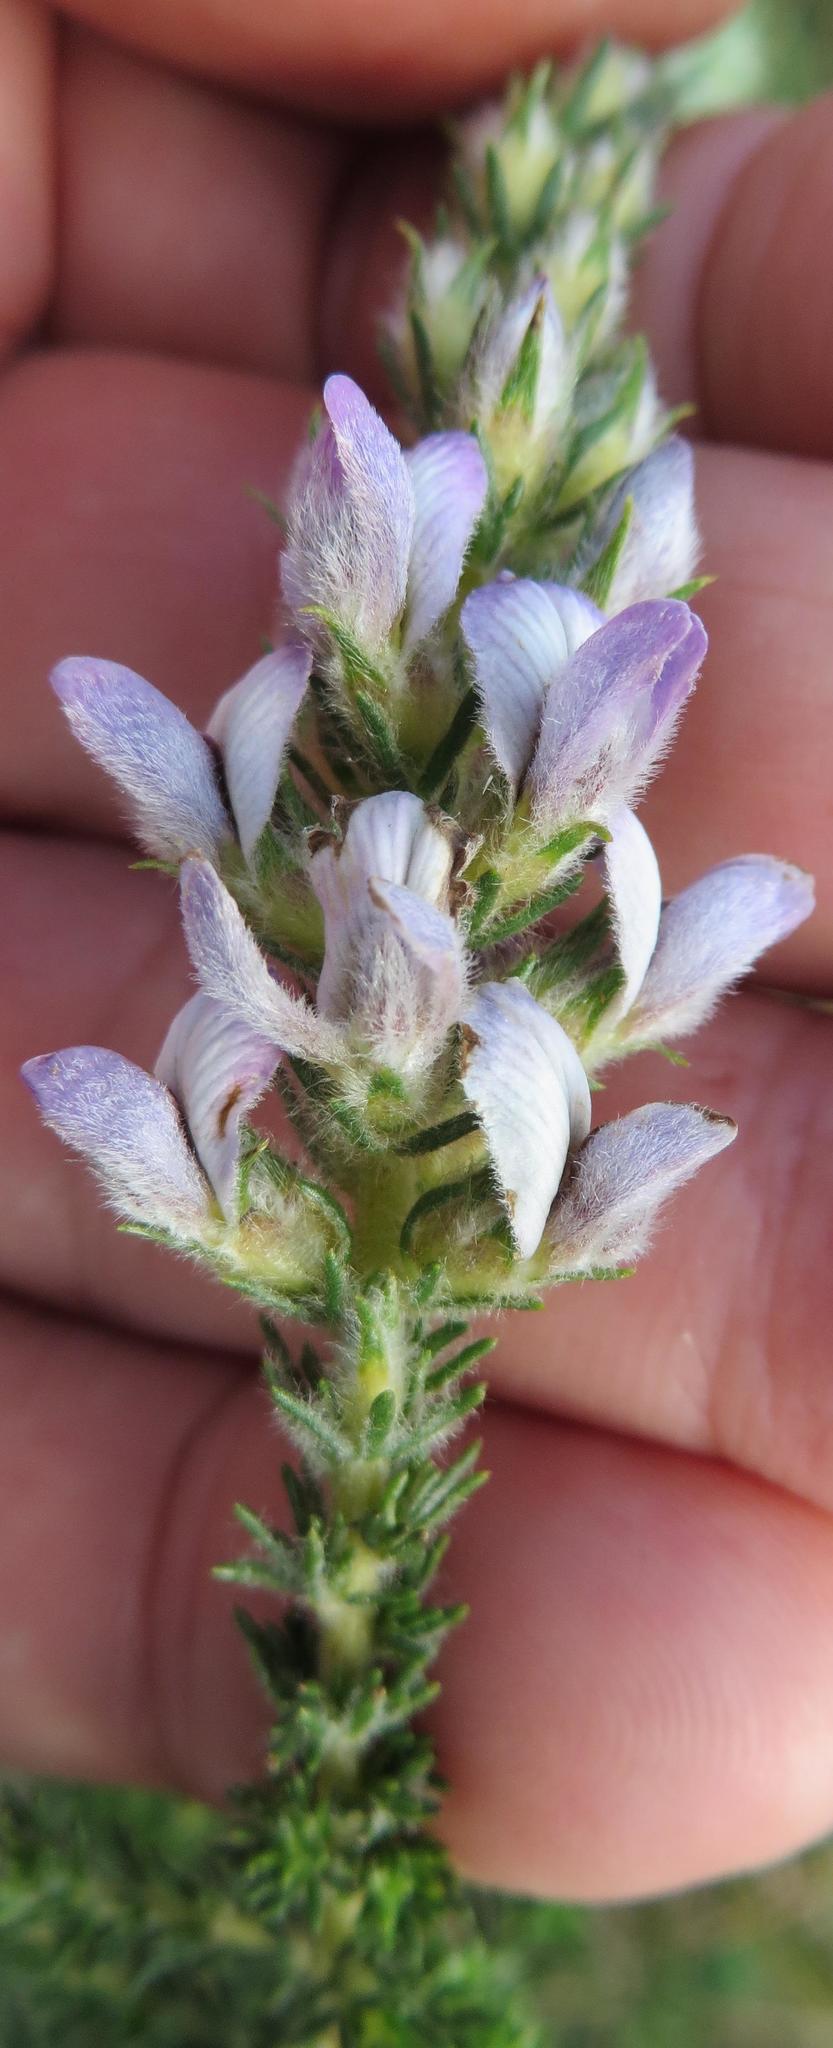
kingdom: Plantae
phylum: Tracheophyta
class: Magnoliopsida
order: Fabales
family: Fabaceae
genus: Aspalathus
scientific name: Aspalathus cephalotes
